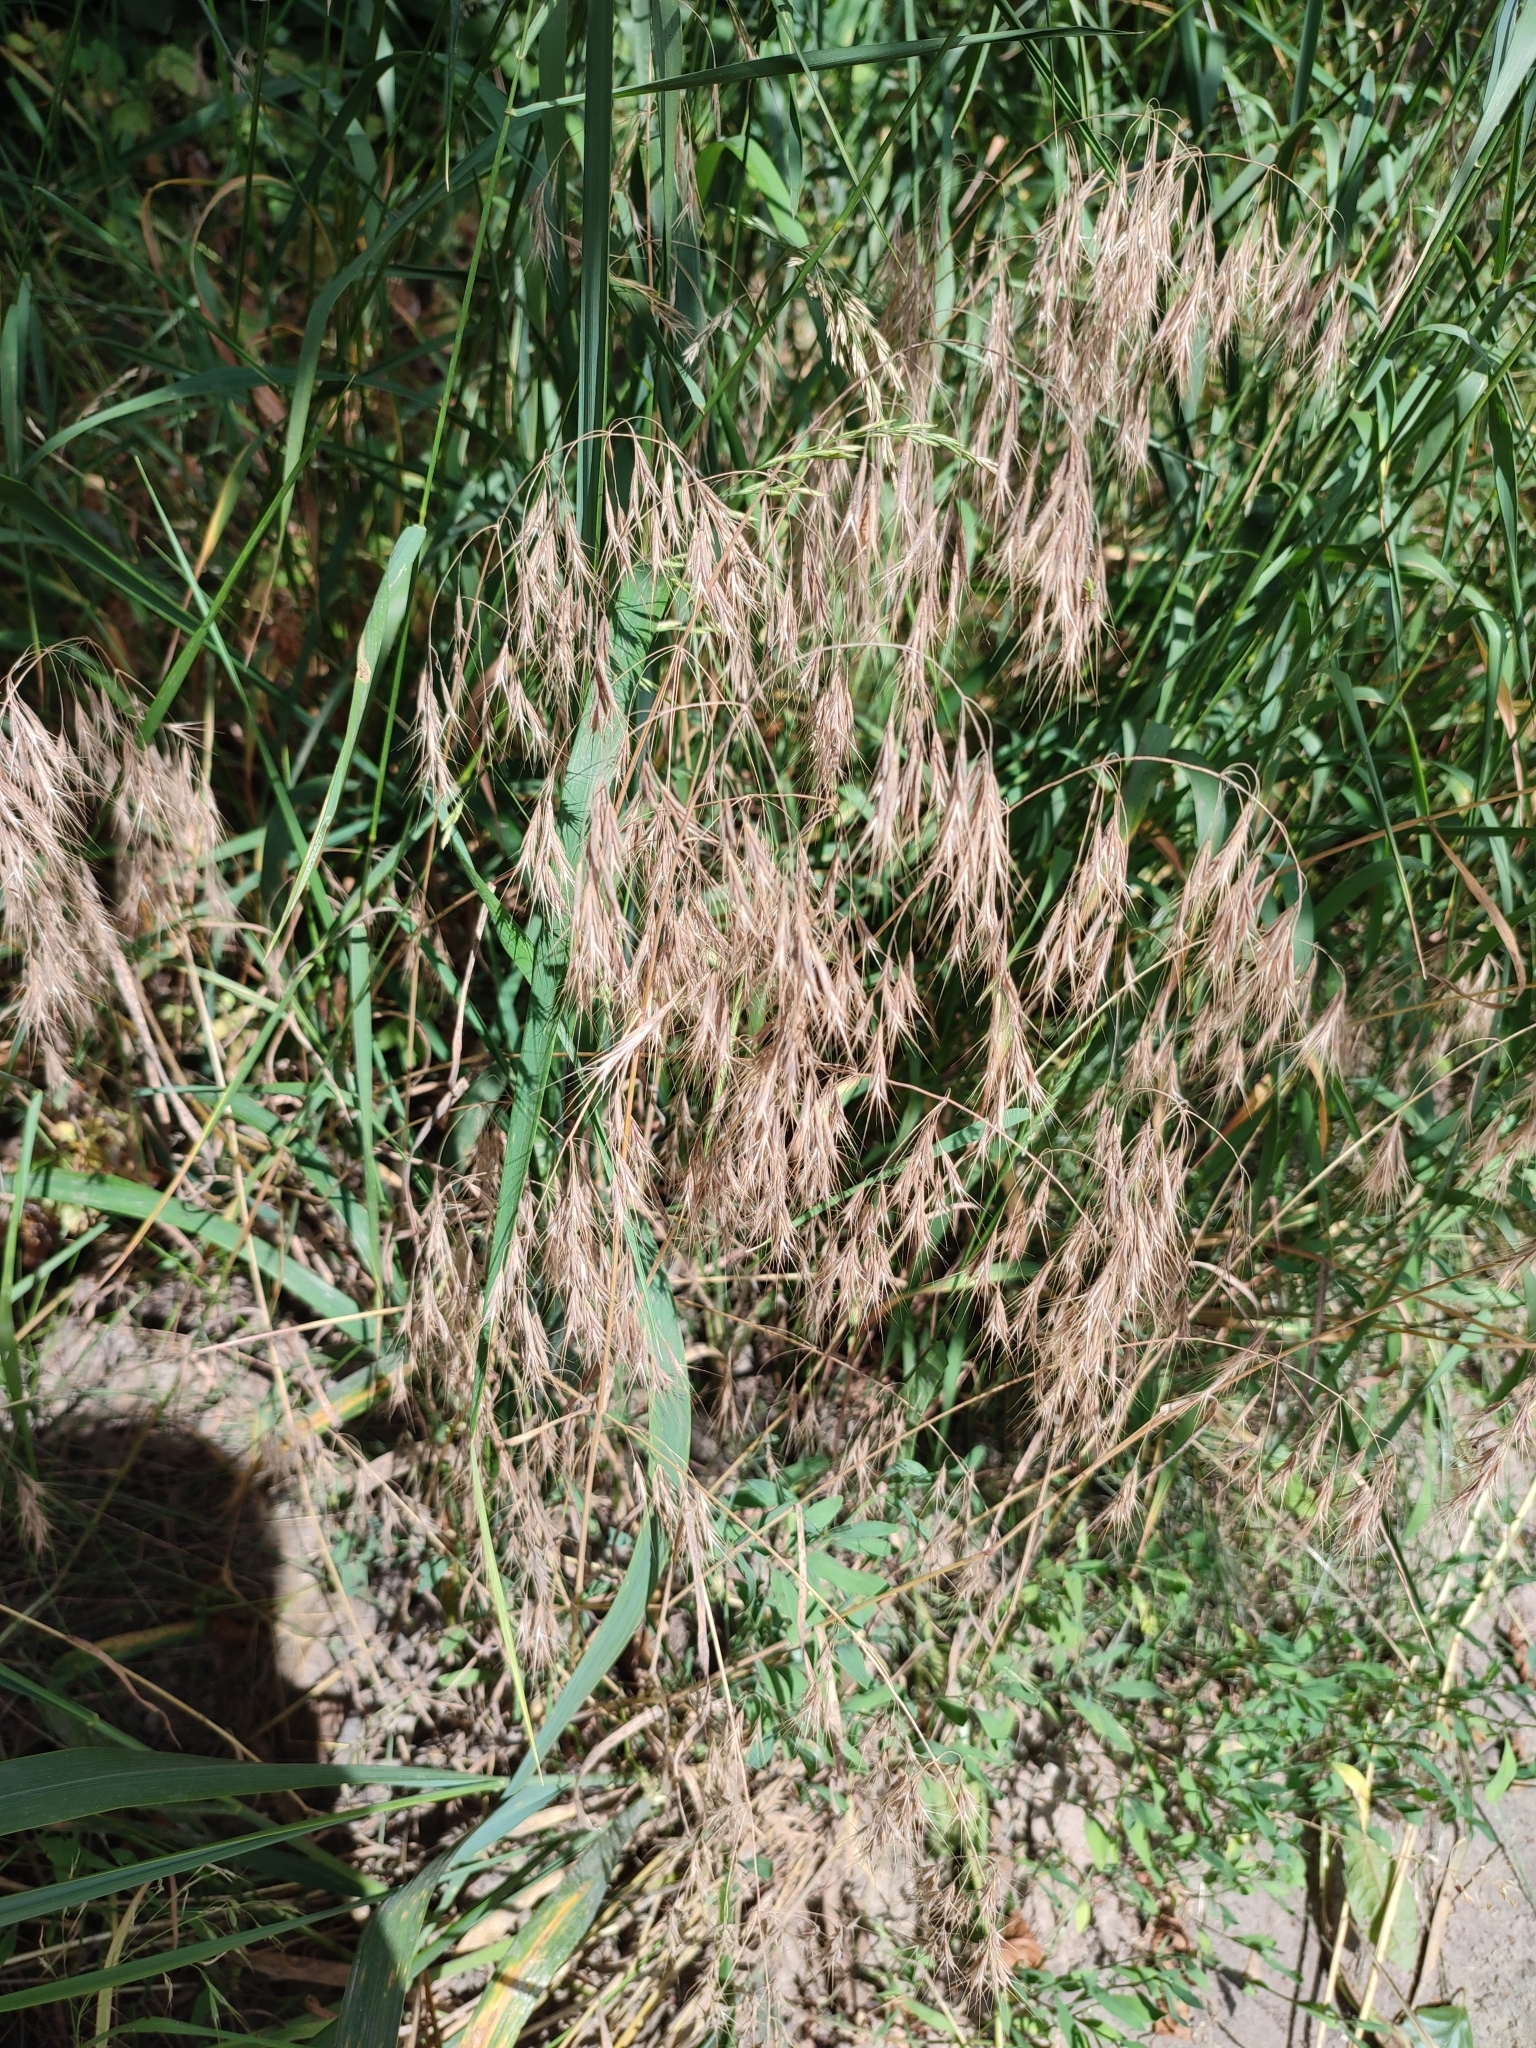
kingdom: Plantae
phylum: Tracheophyta
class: Liliopsida
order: Poales
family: Poaceae
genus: Bromus
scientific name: Bromus tectorum
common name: Cheatgrass
